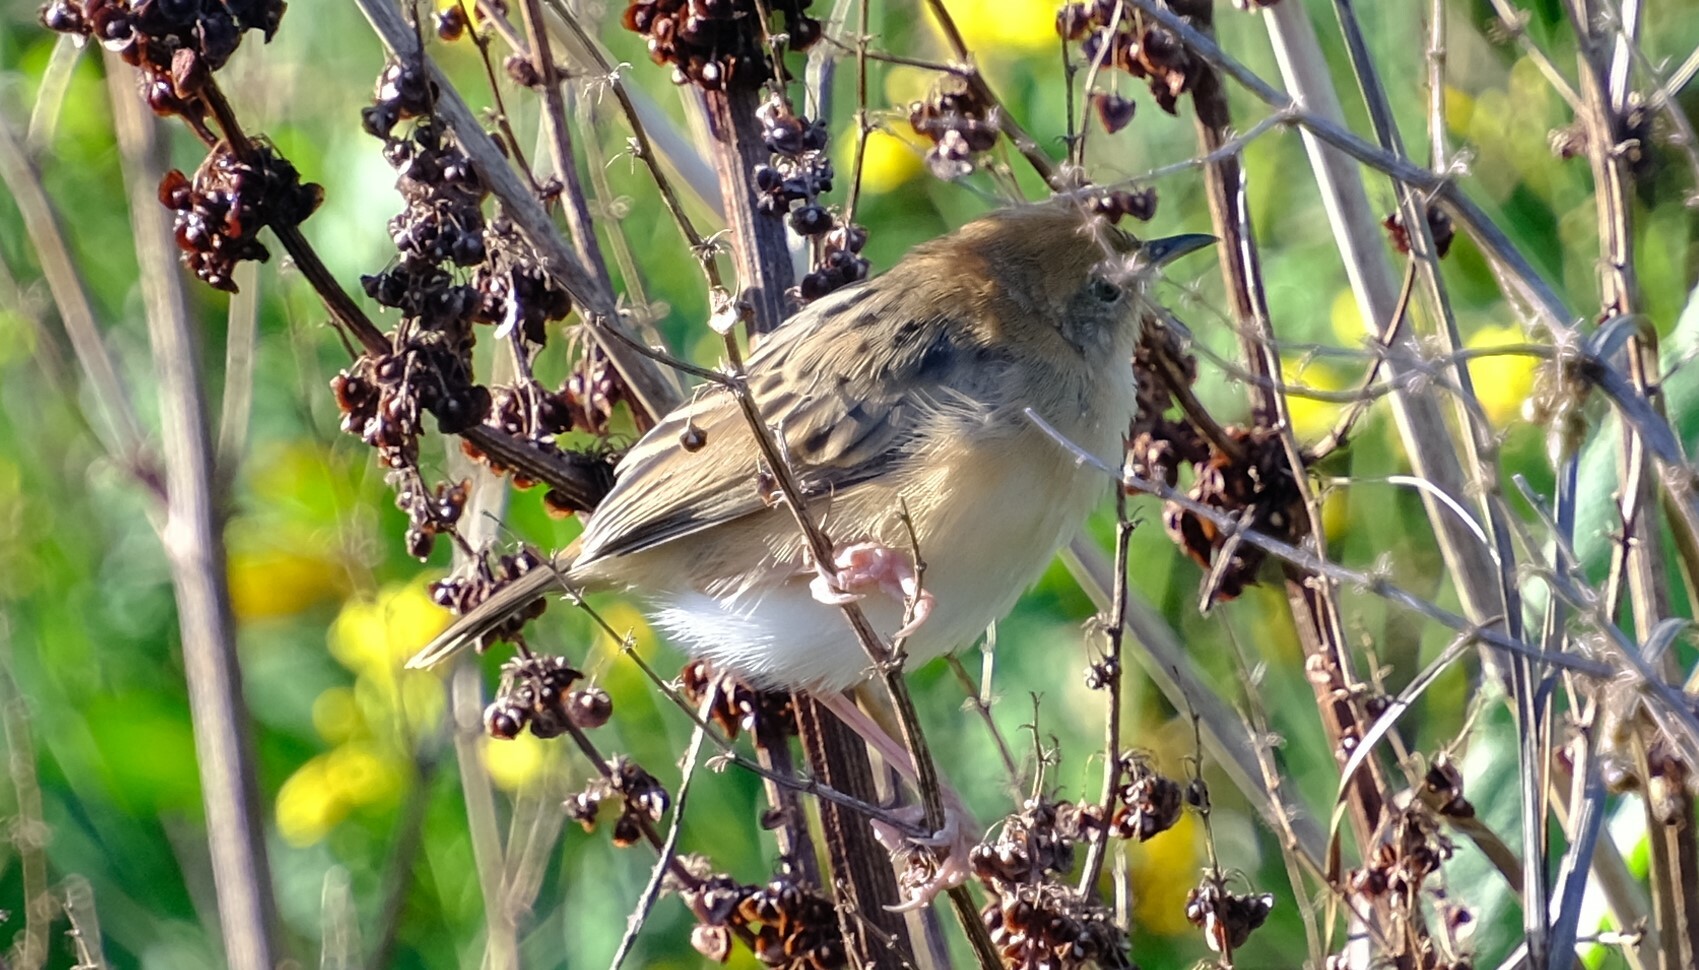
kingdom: Animalia
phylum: Chordata
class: Aves
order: Passeriformes
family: Cisticolidae
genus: Cisticola
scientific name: Cisticola exilis
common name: Golden-headed cisticola
